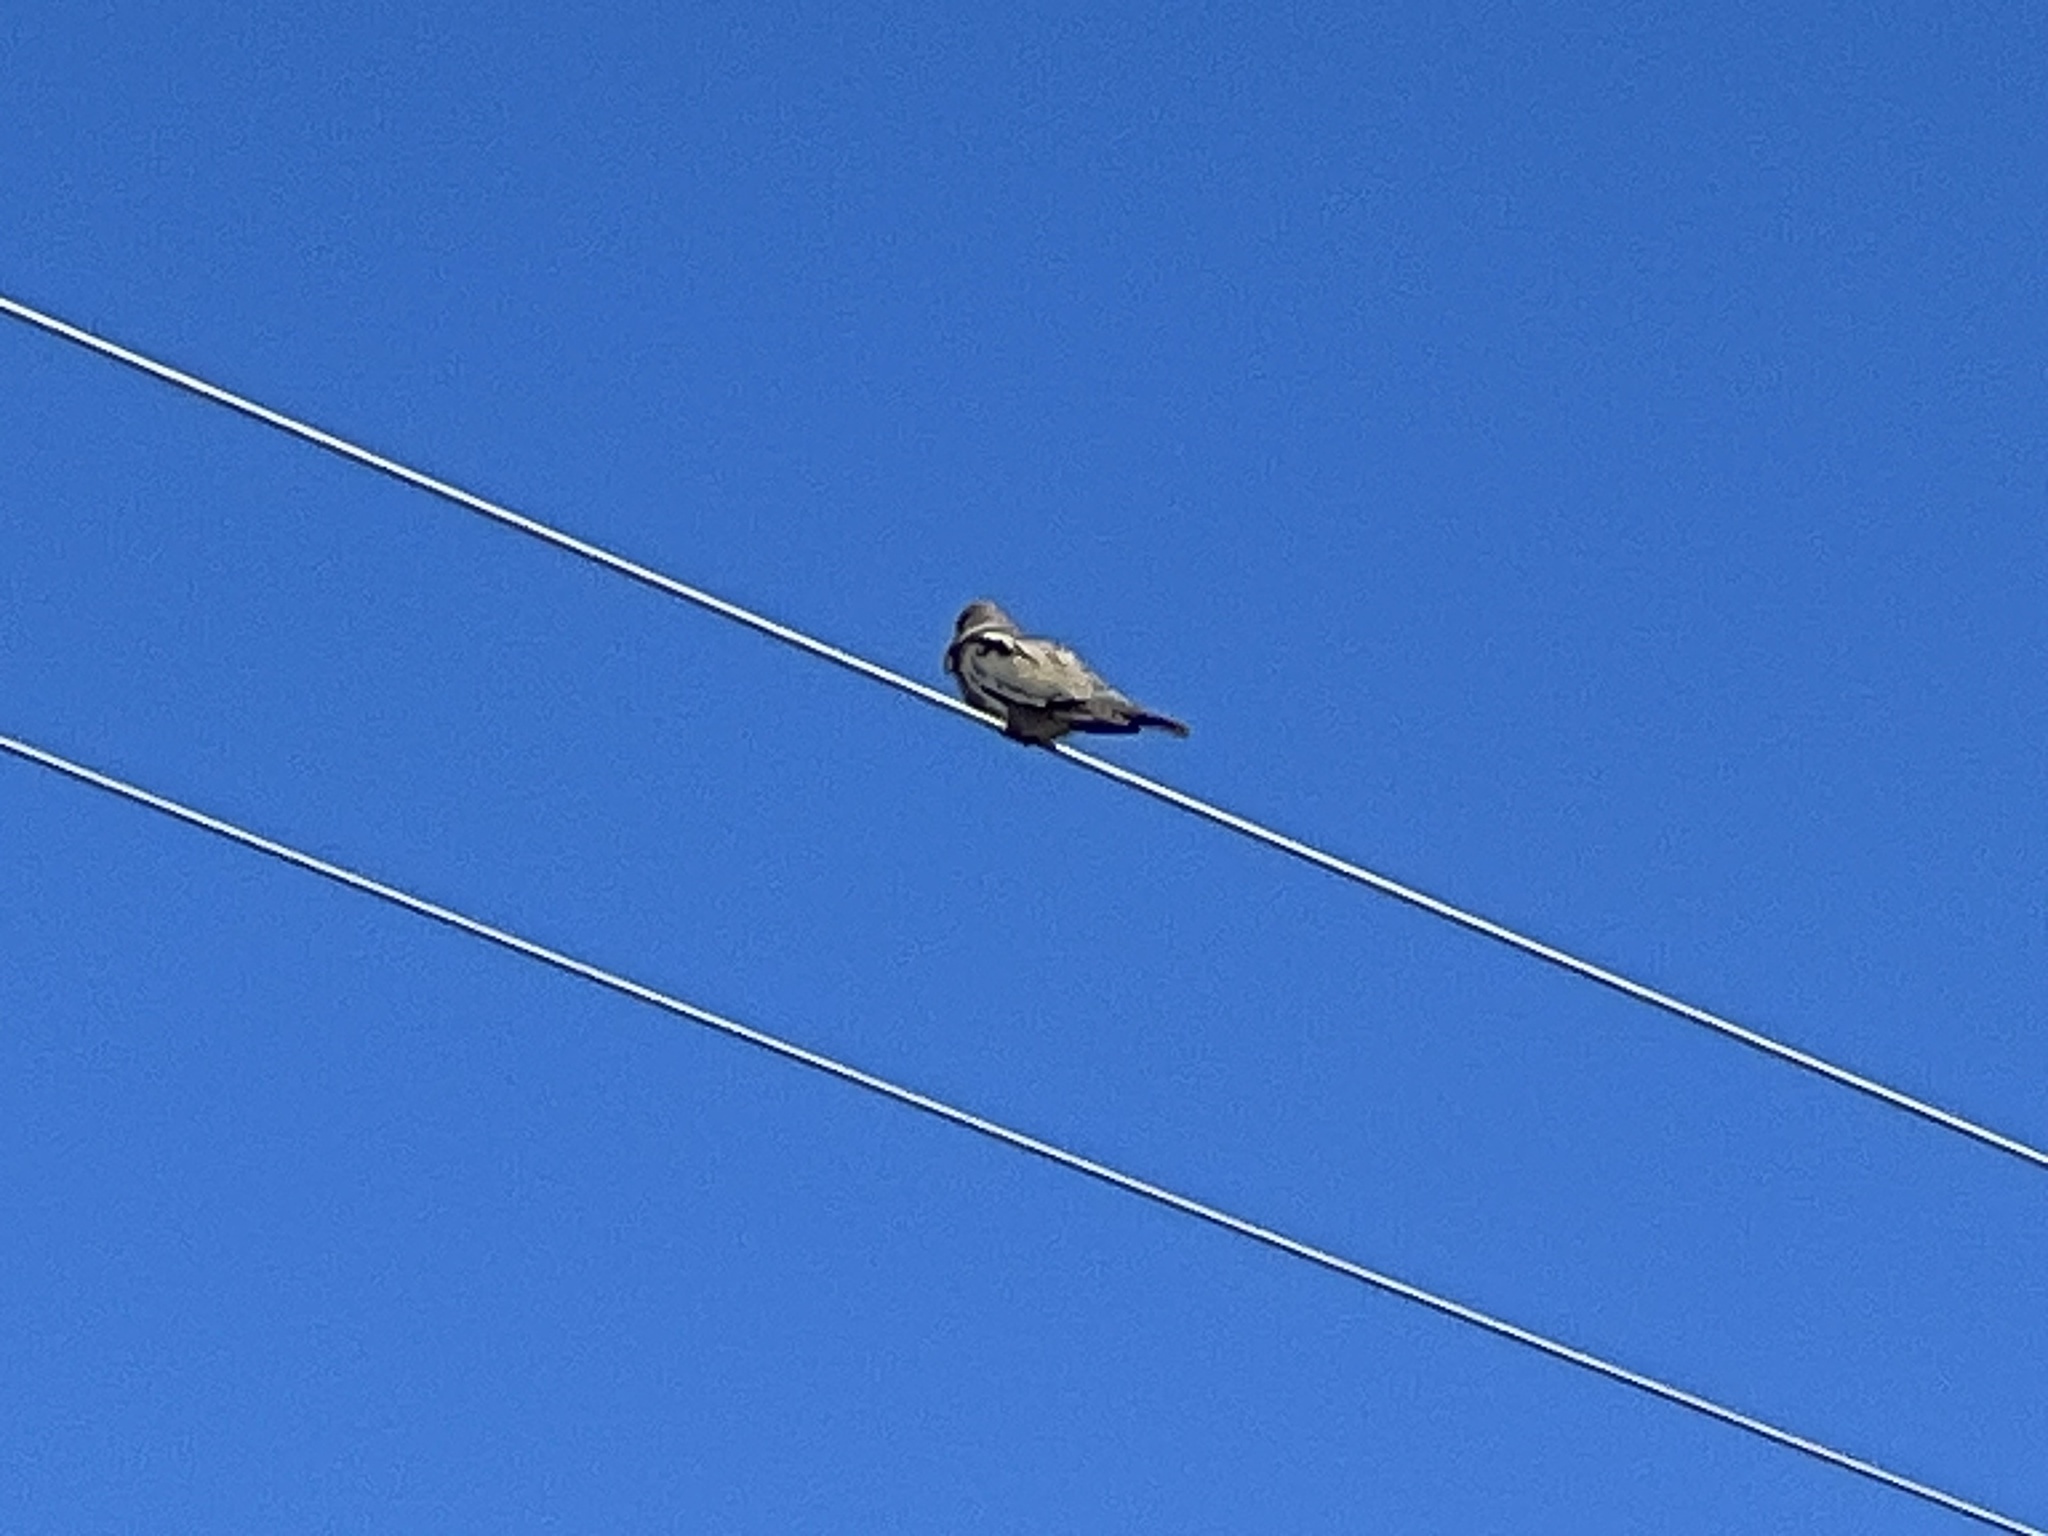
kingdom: Animalia
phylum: Chordata
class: Aves
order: Columbiformes
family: Columbidae
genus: Zenaida
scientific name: Zenaida asiatica
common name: White-winged dove
